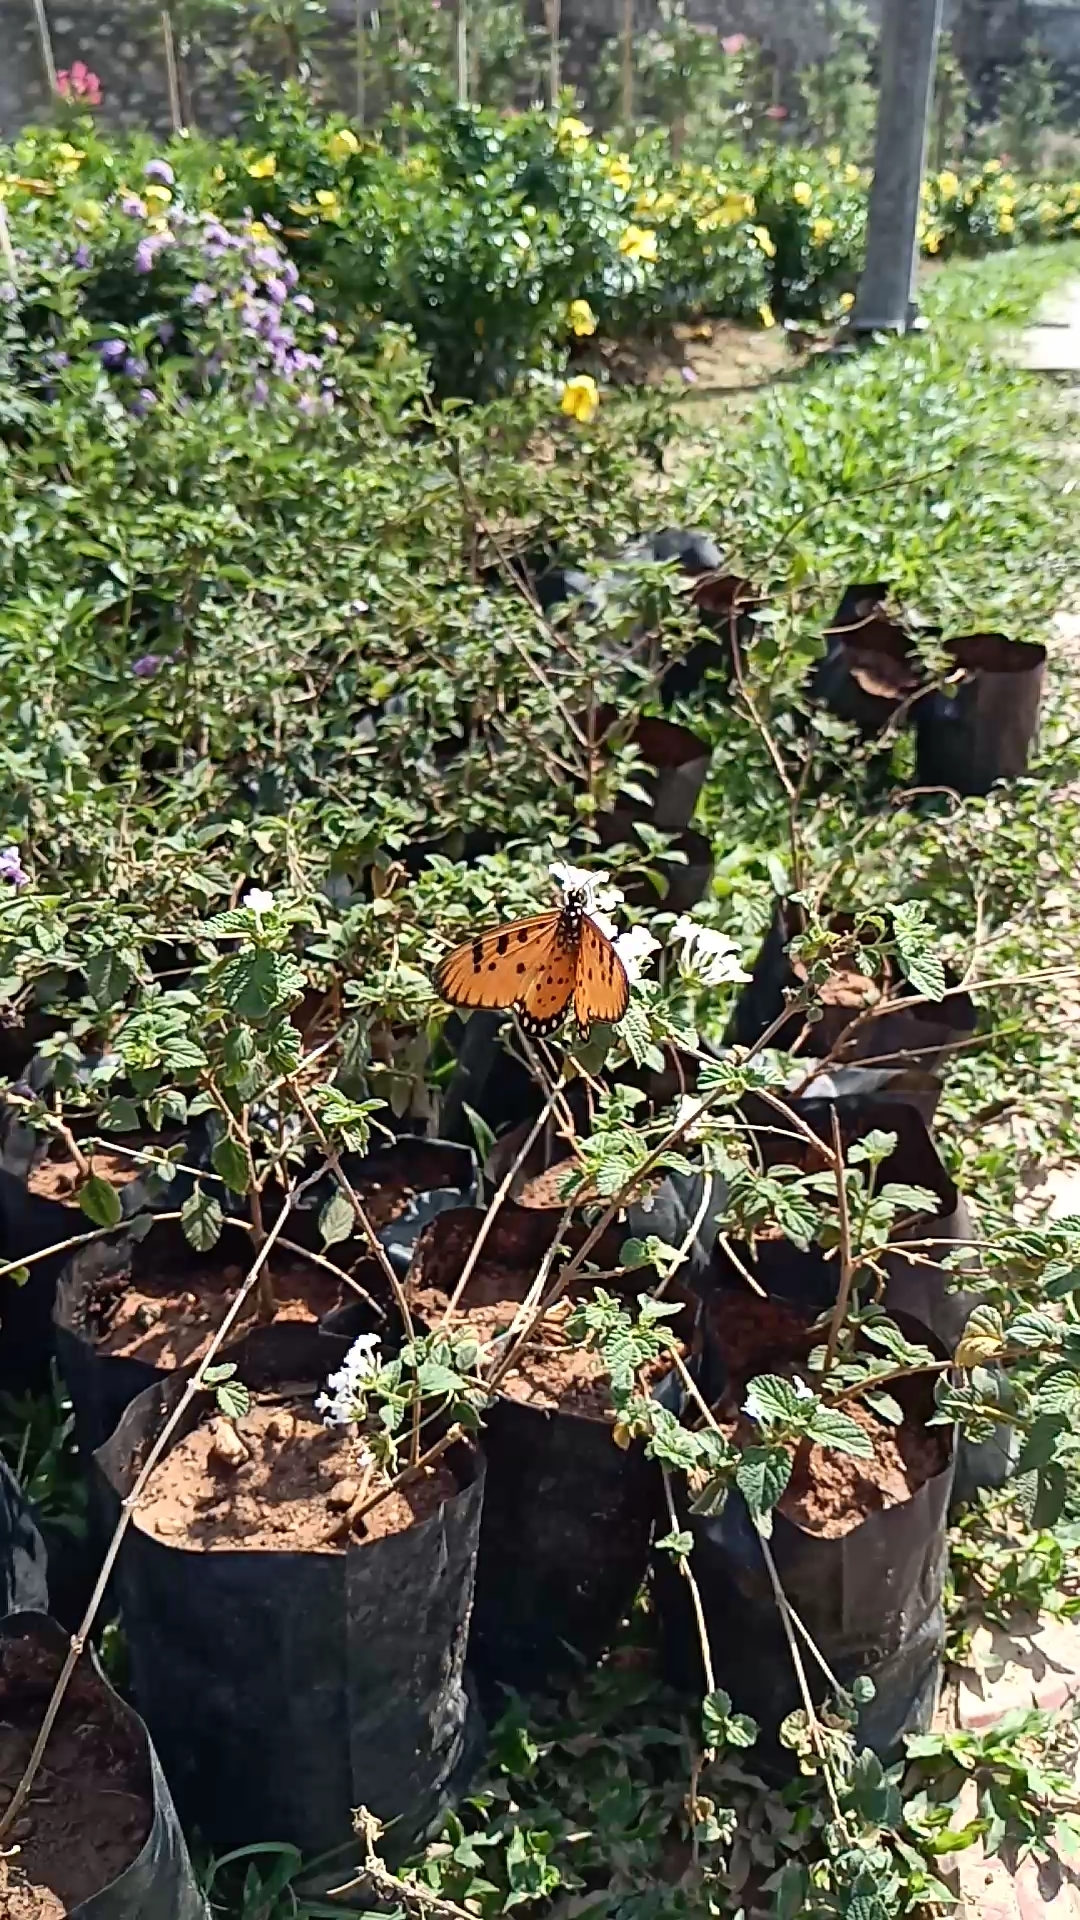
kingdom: Animalia
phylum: Arthropoda
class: Insecta
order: Lepidoptera
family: Nymphalidae
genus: Acraea
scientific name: Acraea terpsicore
